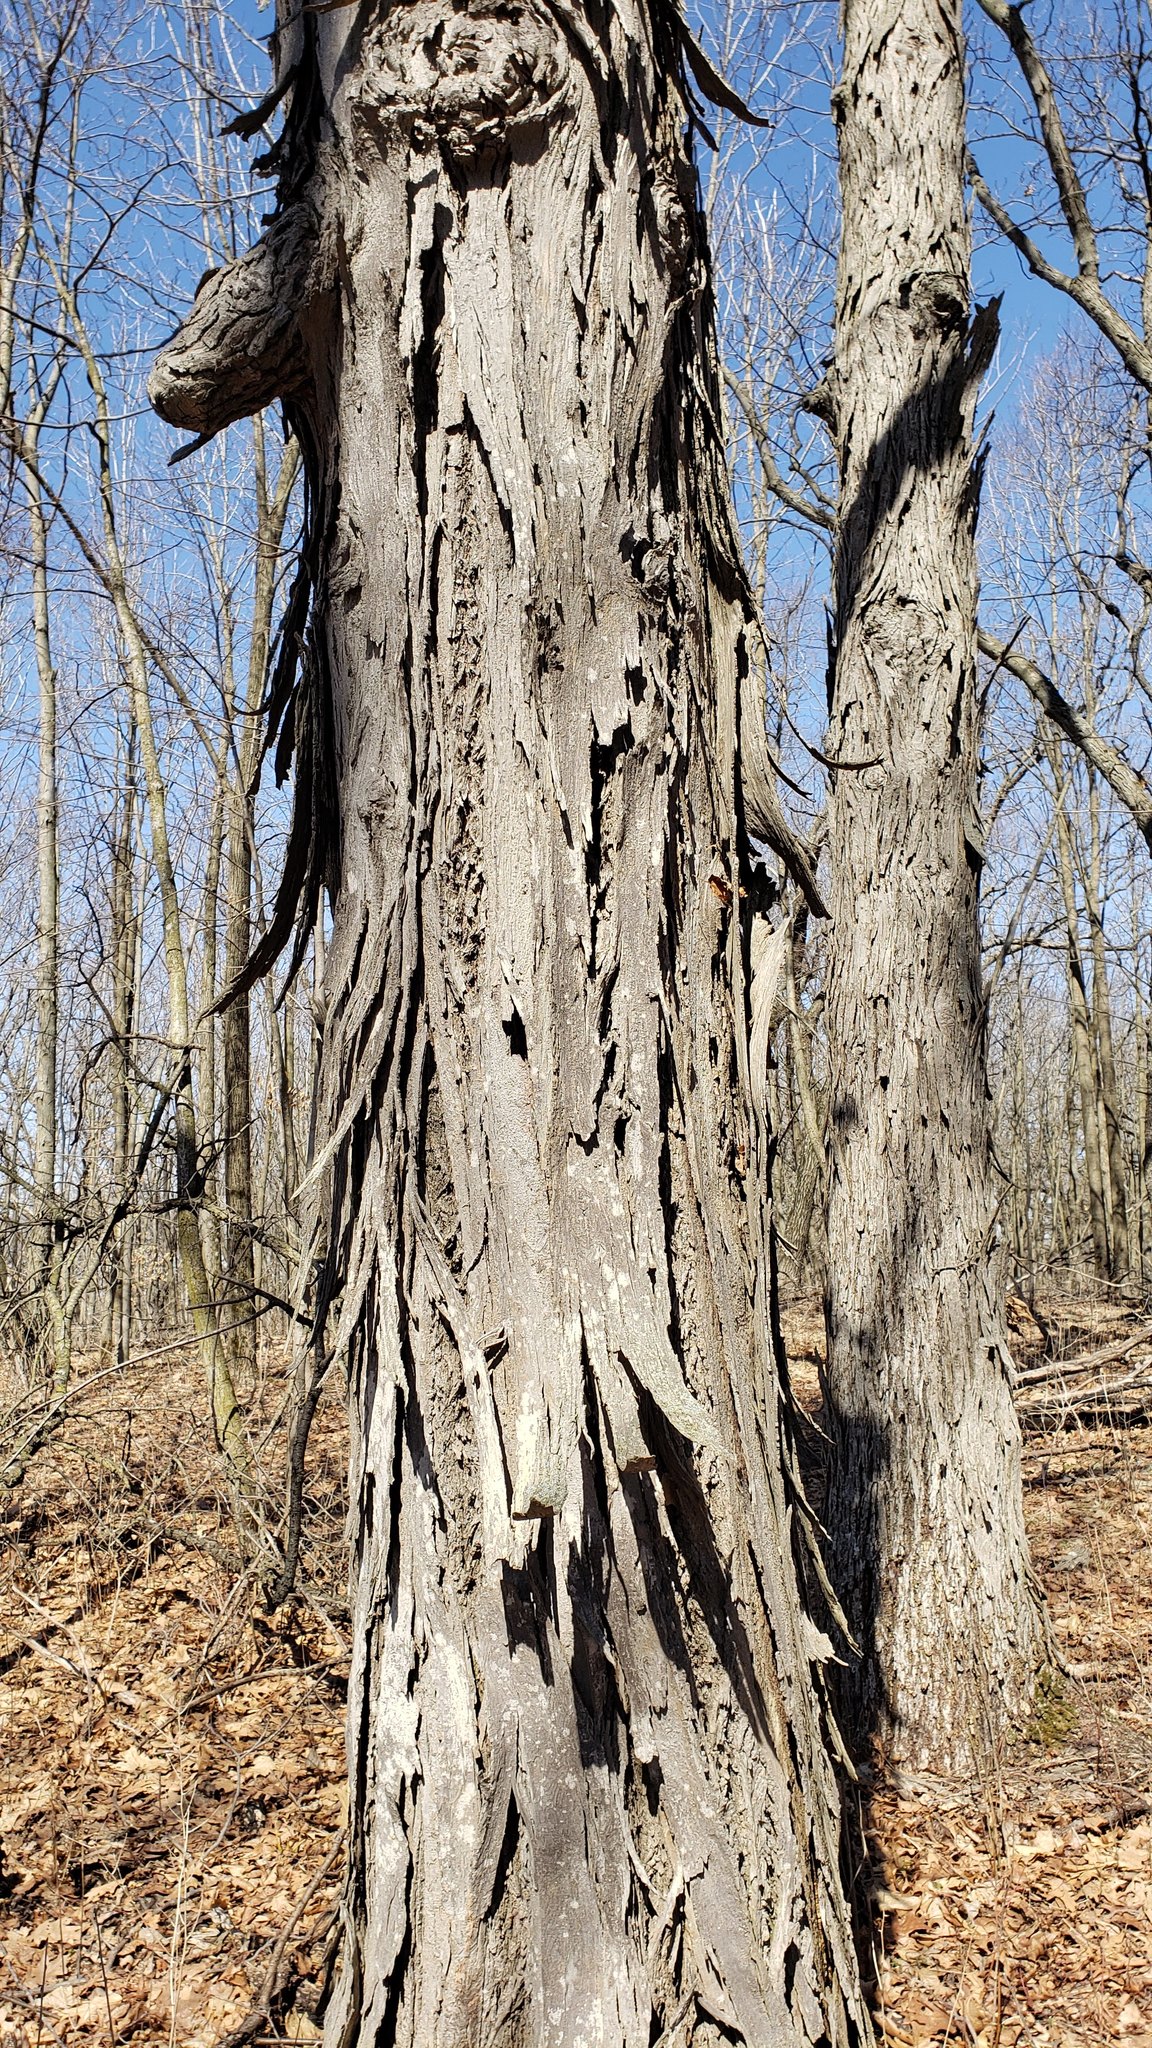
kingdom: Plantae
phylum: Tracheophyta
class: Magnoliopsida
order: Fagales
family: Juglandaceae
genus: Carya
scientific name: Carya ovata
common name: Shagbark hickory
